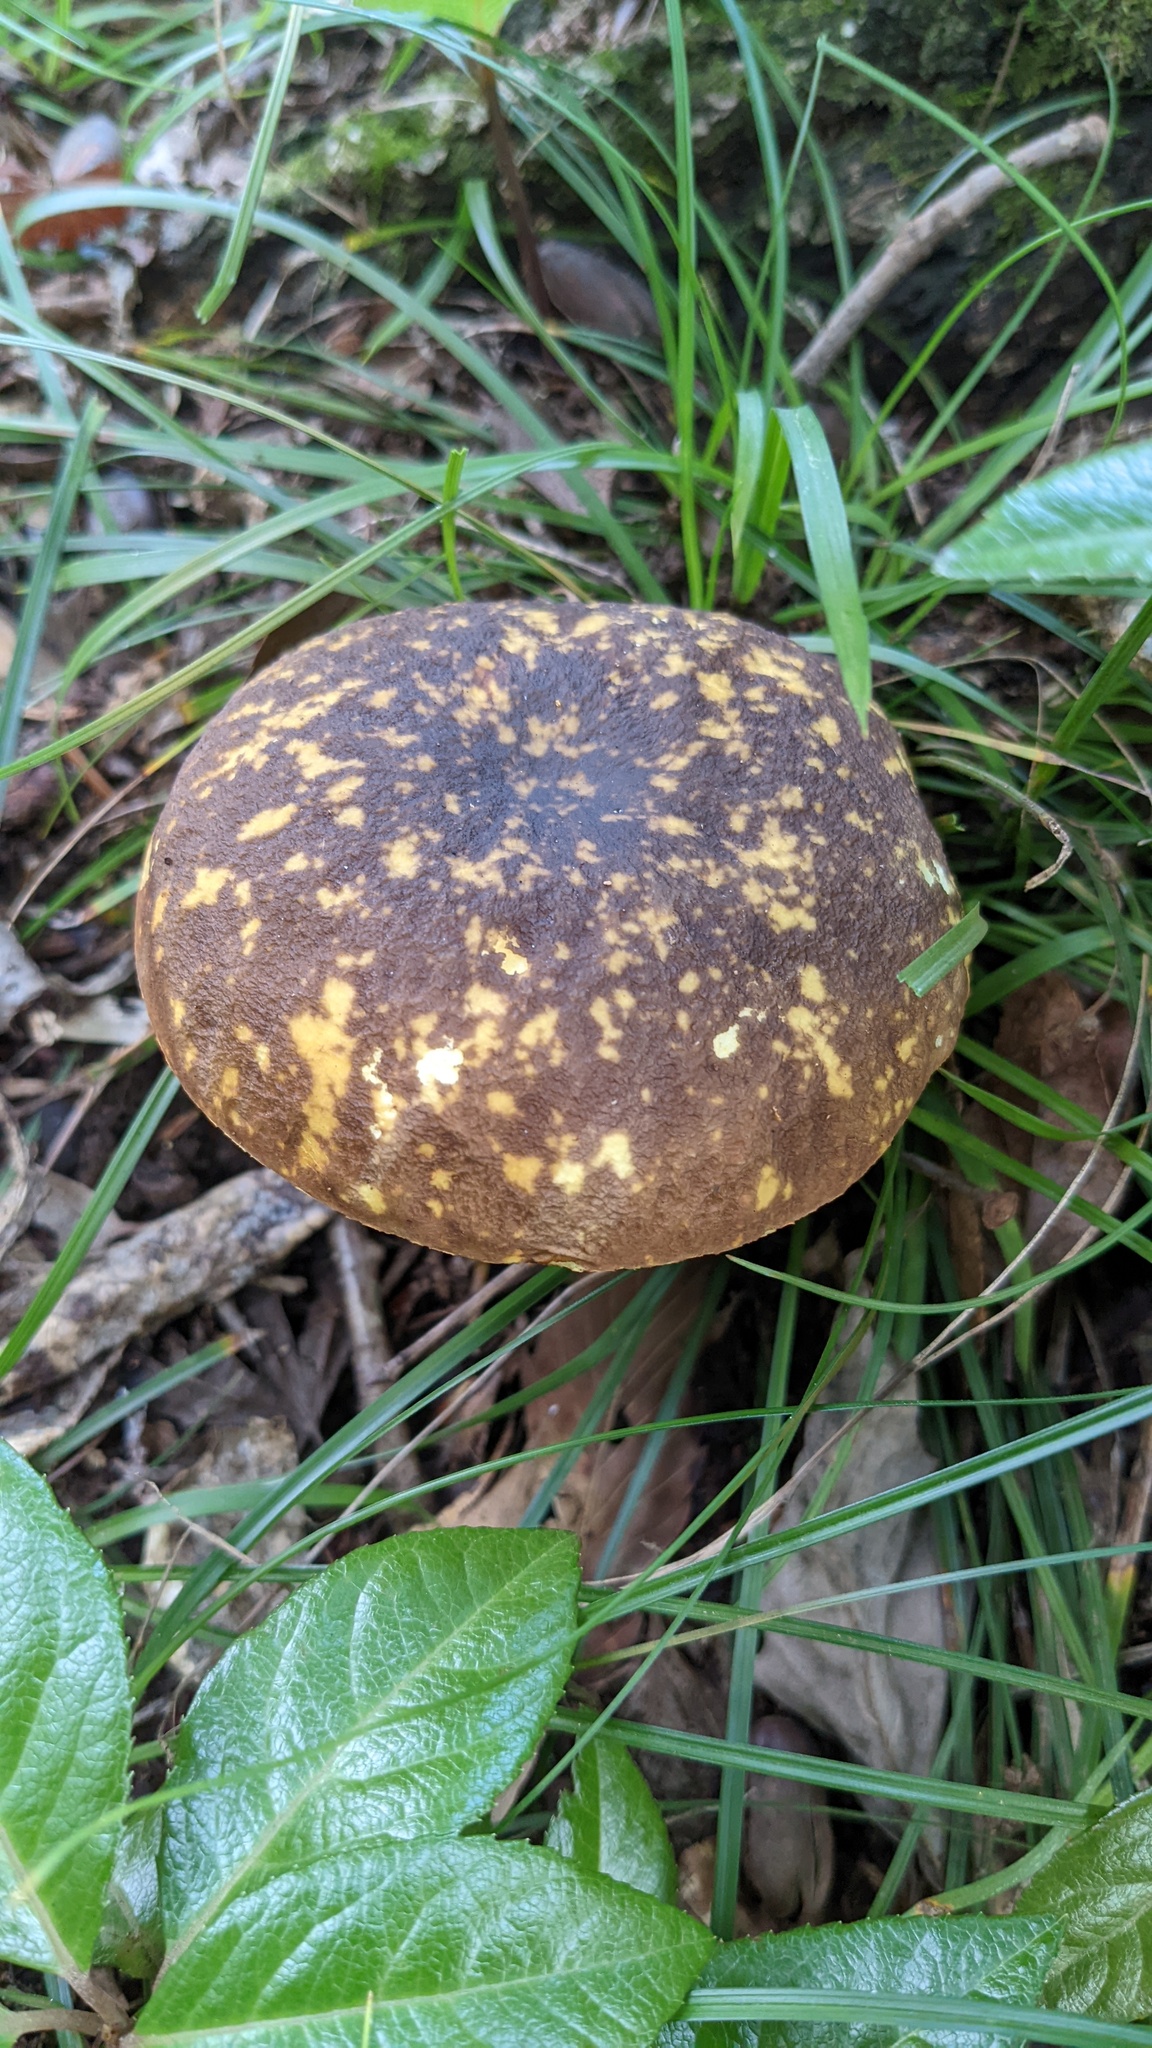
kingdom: Fungi
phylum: Basidiomycota
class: Agaricomycetes
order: Boletales
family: Boletaceae
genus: Boletus
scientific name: Boletus violaceofuscus
